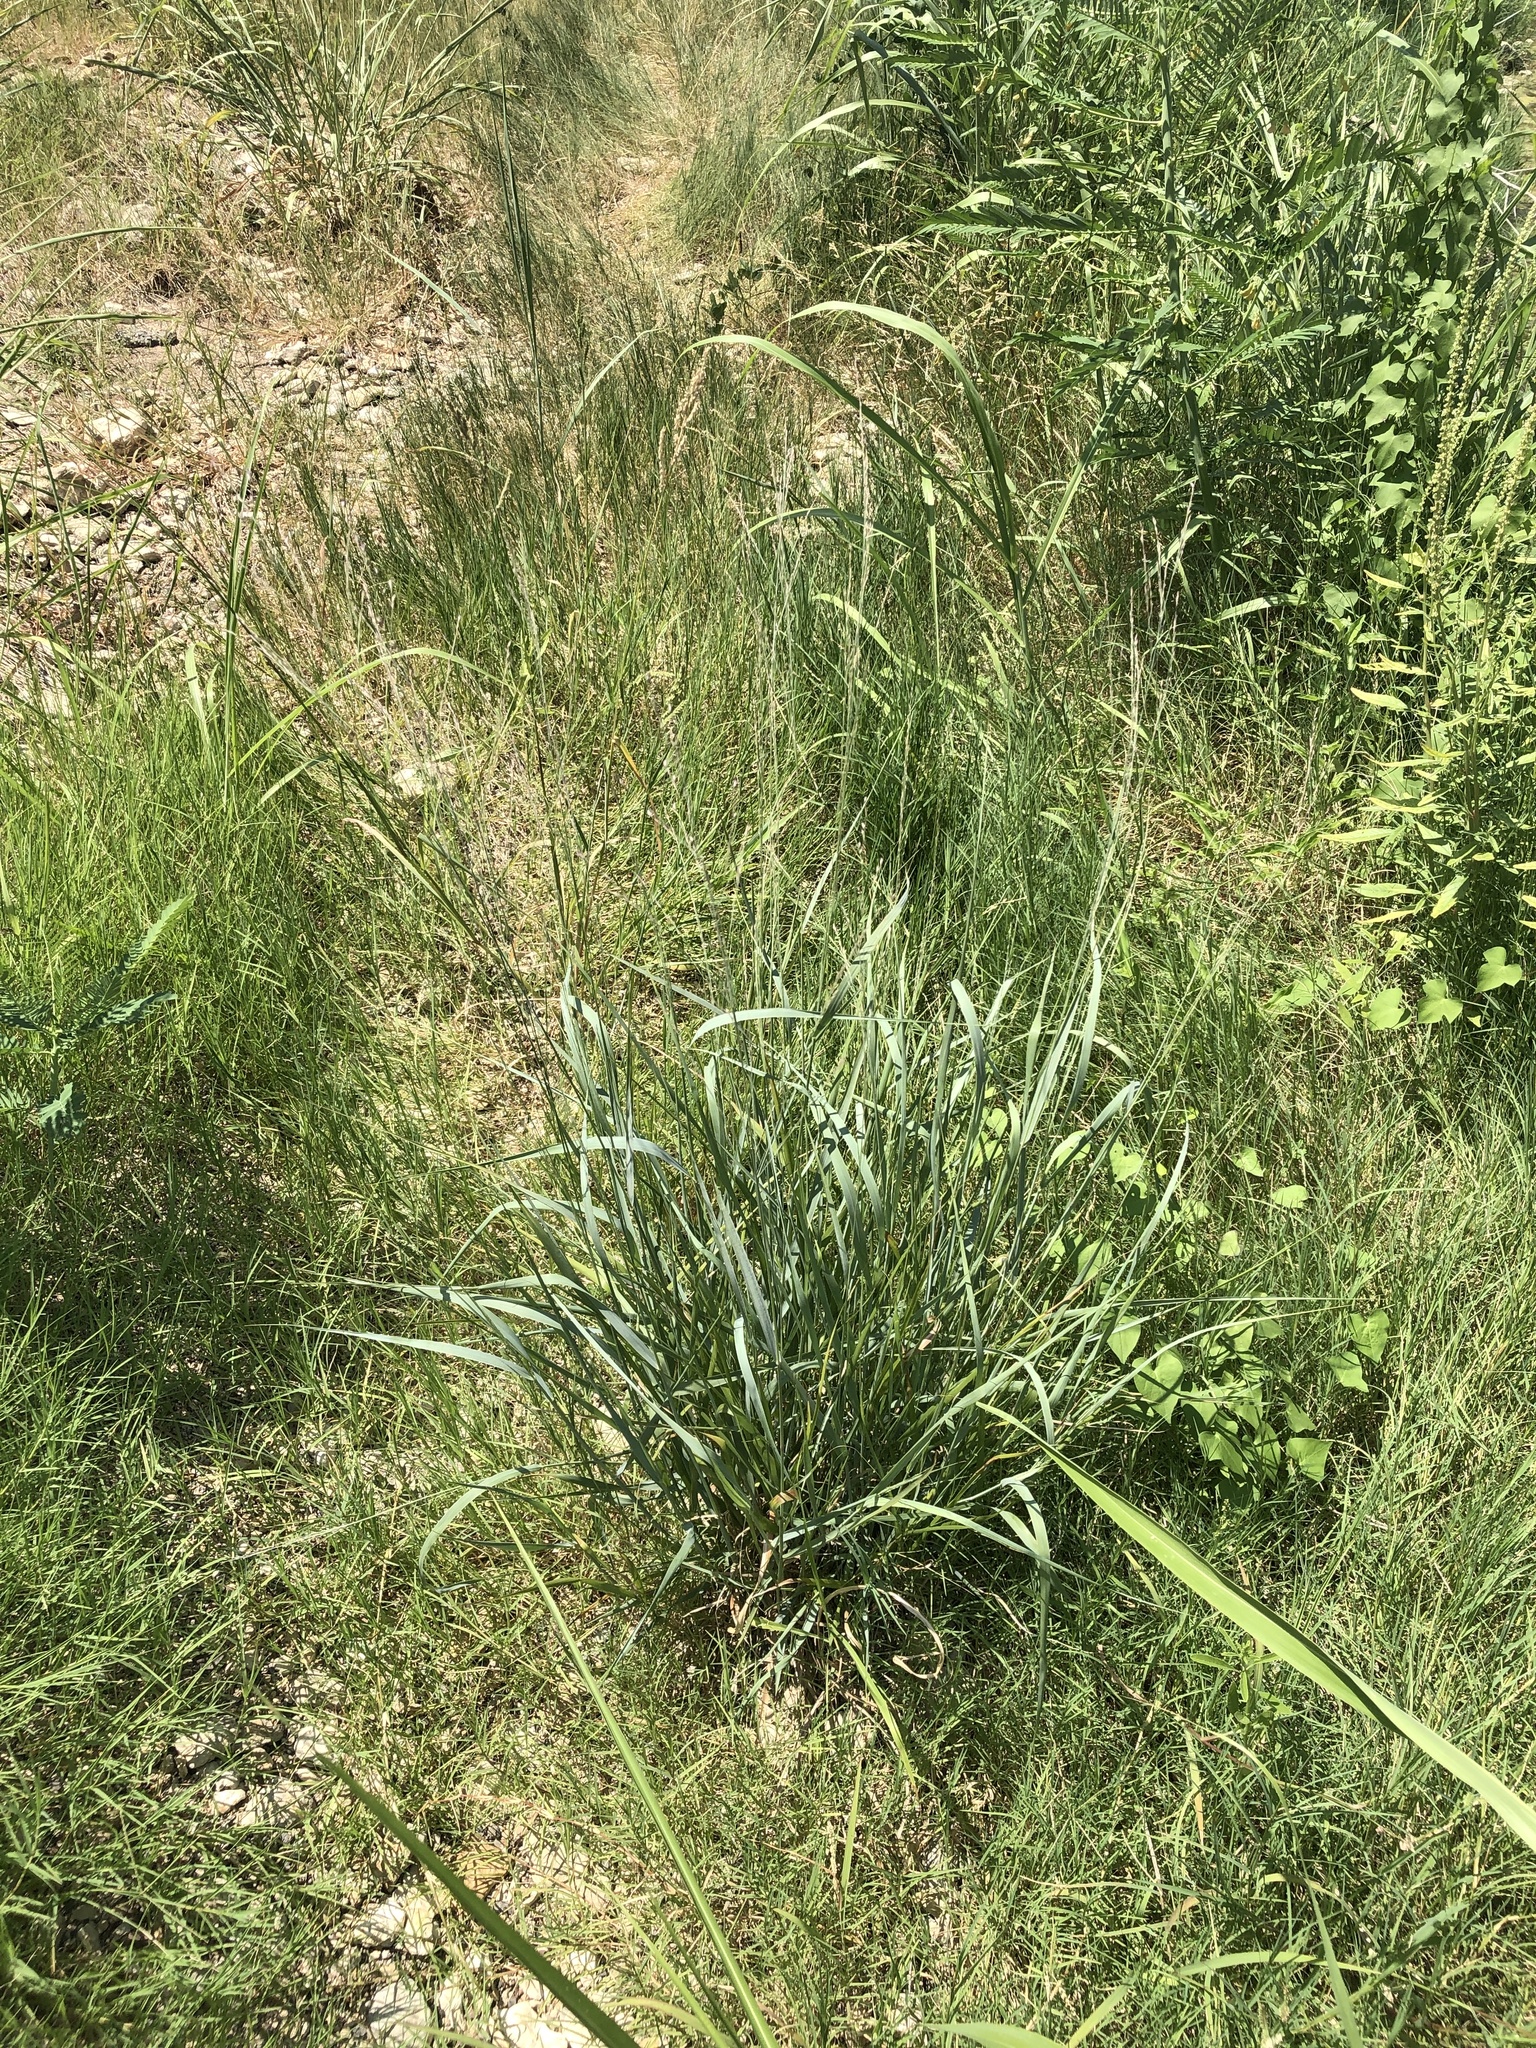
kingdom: Plantae
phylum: Tracheophyta
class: Liliopsida
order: Poales
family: Poaceae
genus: Panicum
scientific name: Panicum virgatum
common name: Switchgrass
